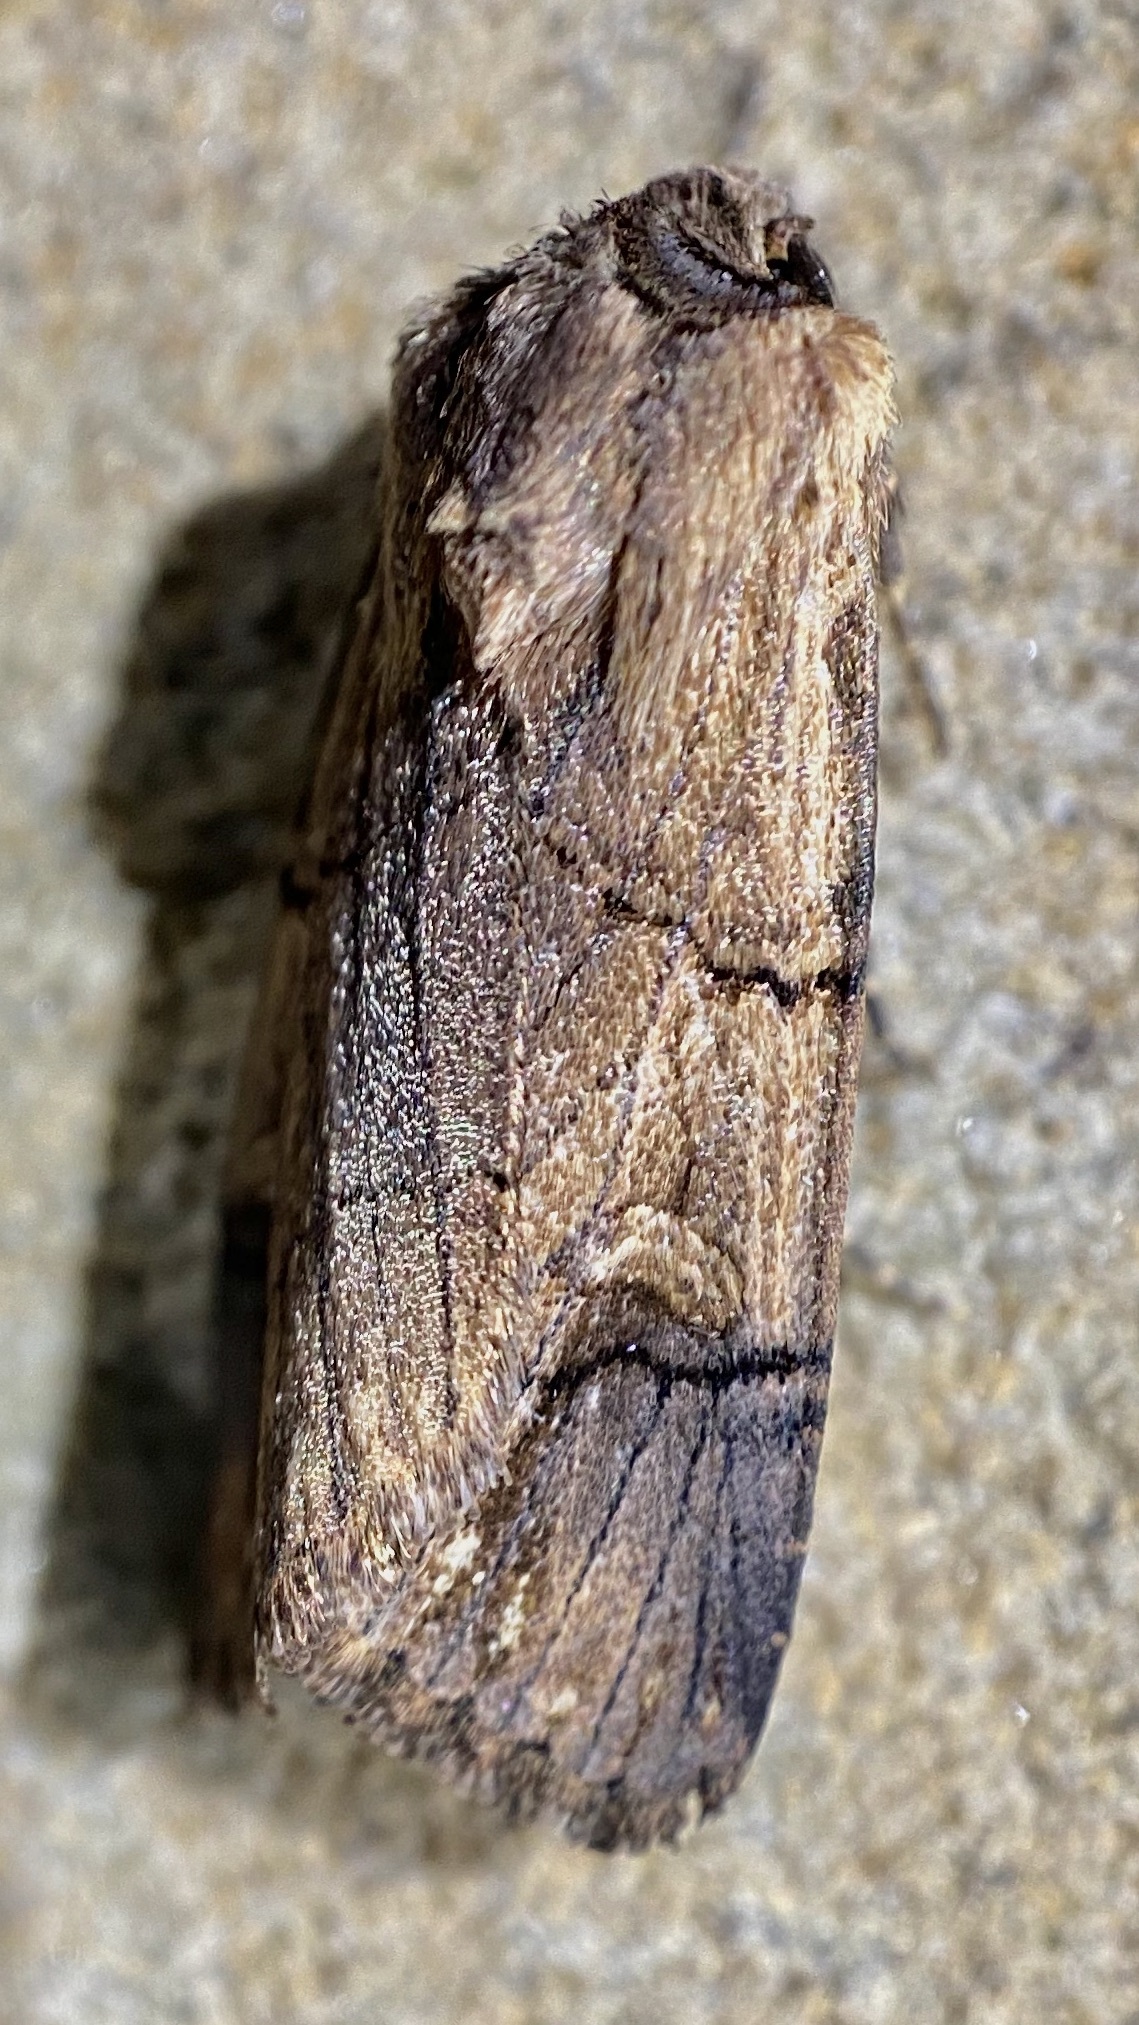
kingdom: Animalia
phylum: Arthropoda
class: Insecta
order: Lepidoptera
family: Noctuidae
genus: Dichagyris
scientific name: Dichagyris grotei
